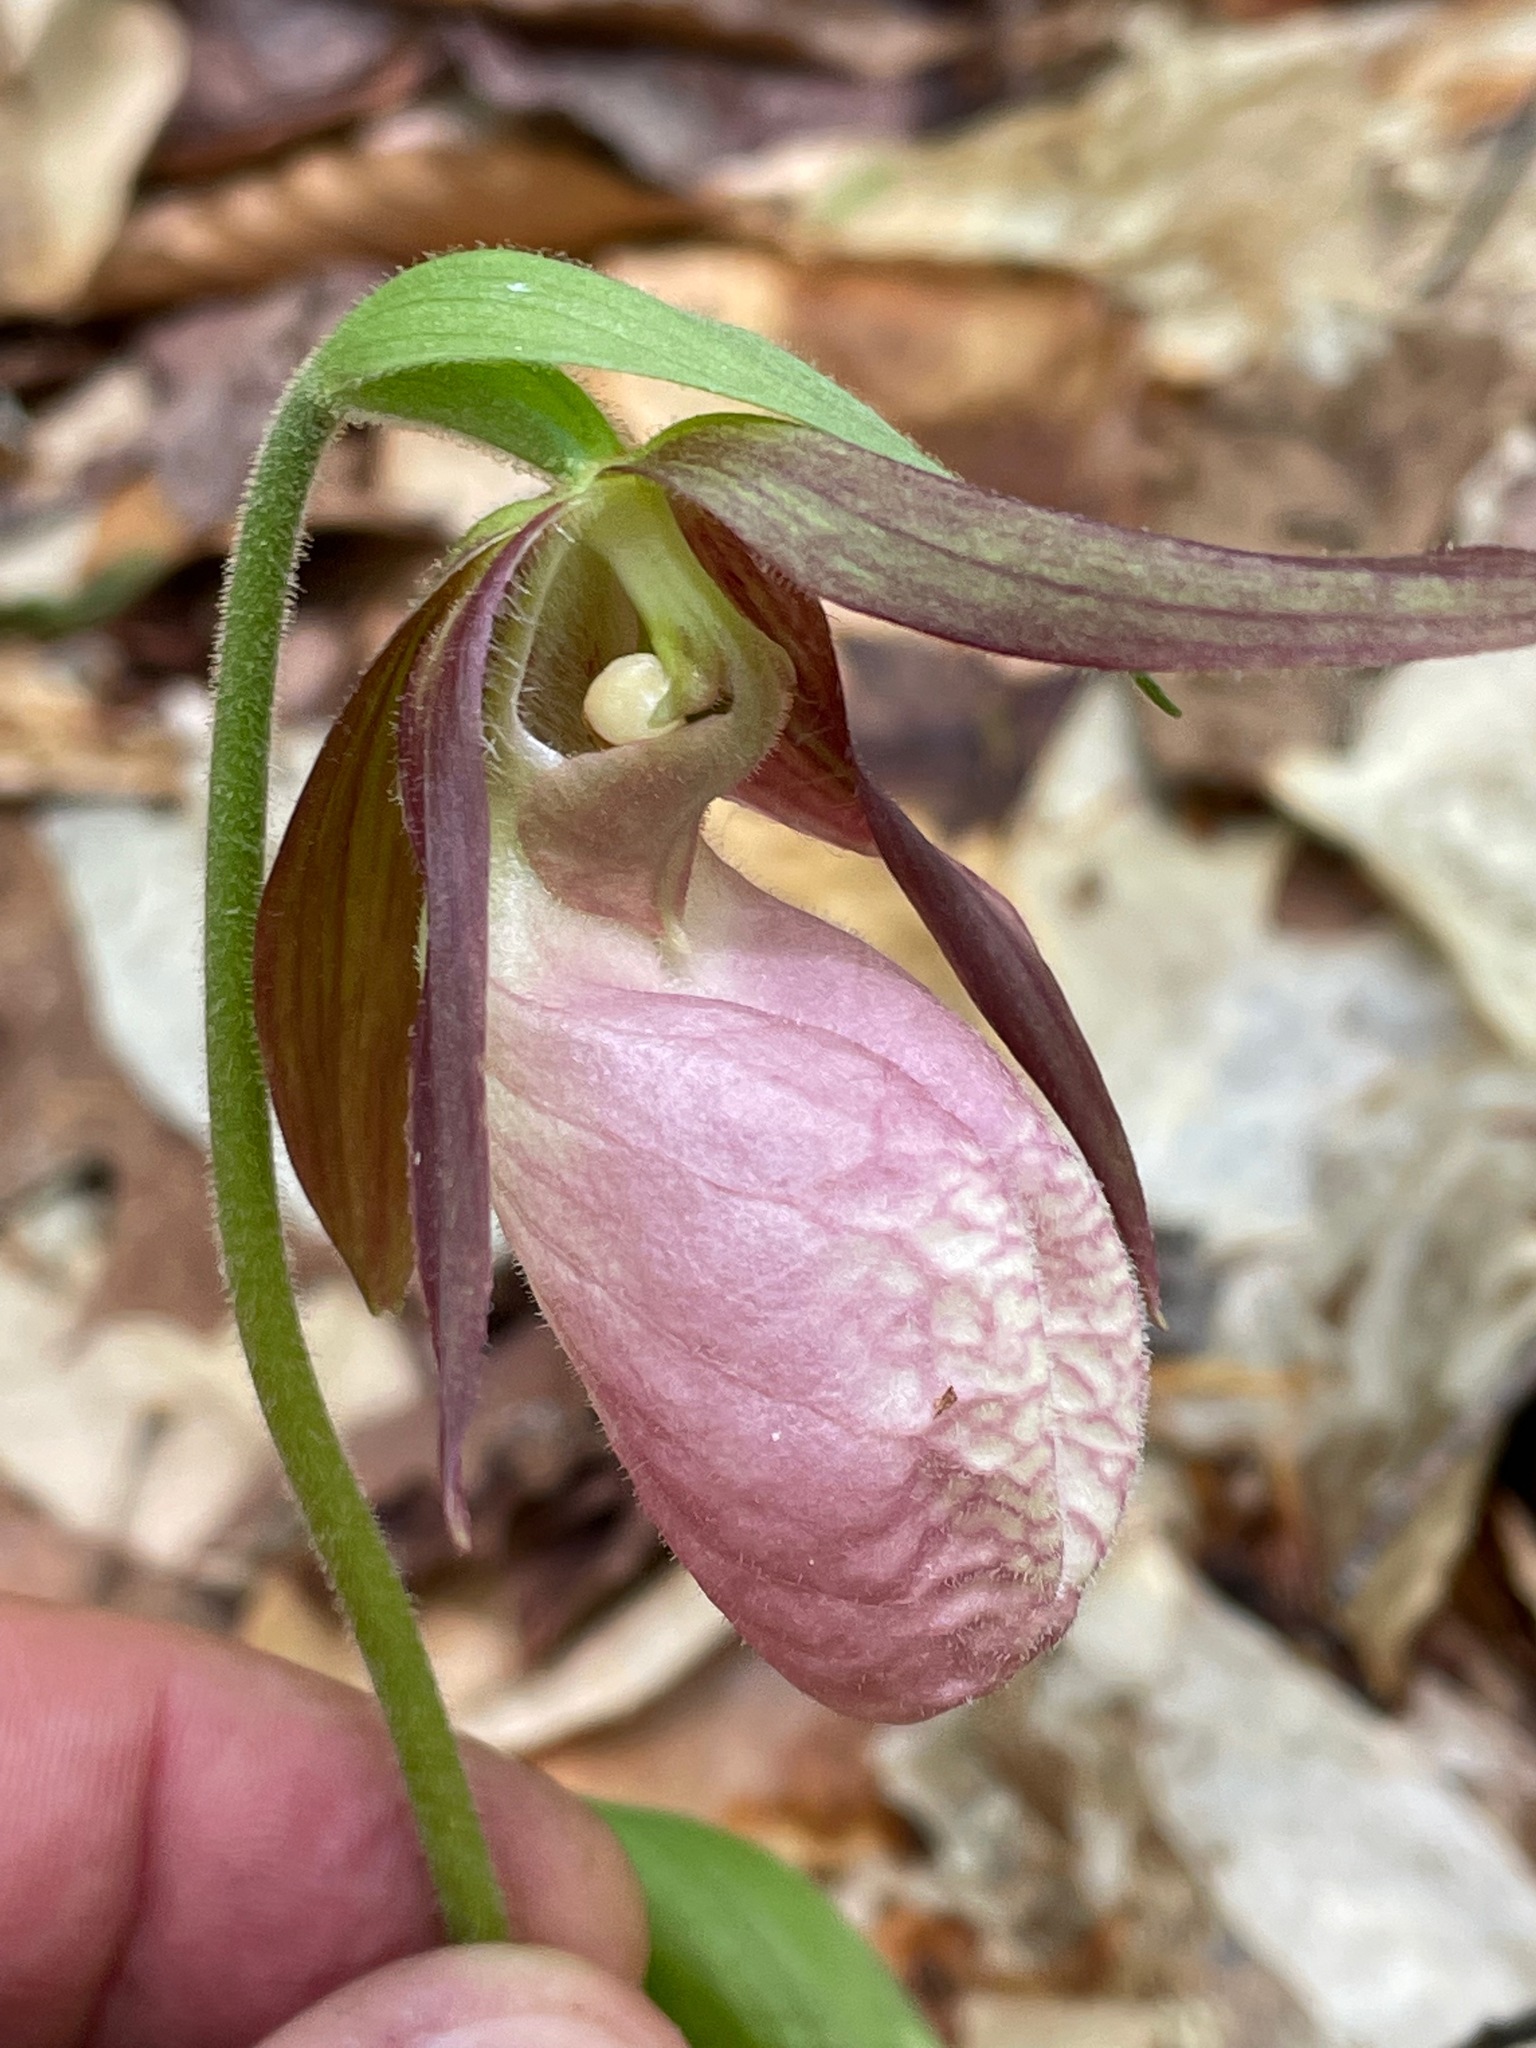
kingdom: Plantae
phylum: Tracheophyta
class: Liliopsida
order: Asparagales
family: Orchidaceae
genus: Cypripedium
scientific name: Cypripedium acaule
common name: Pink lady's-slipper
